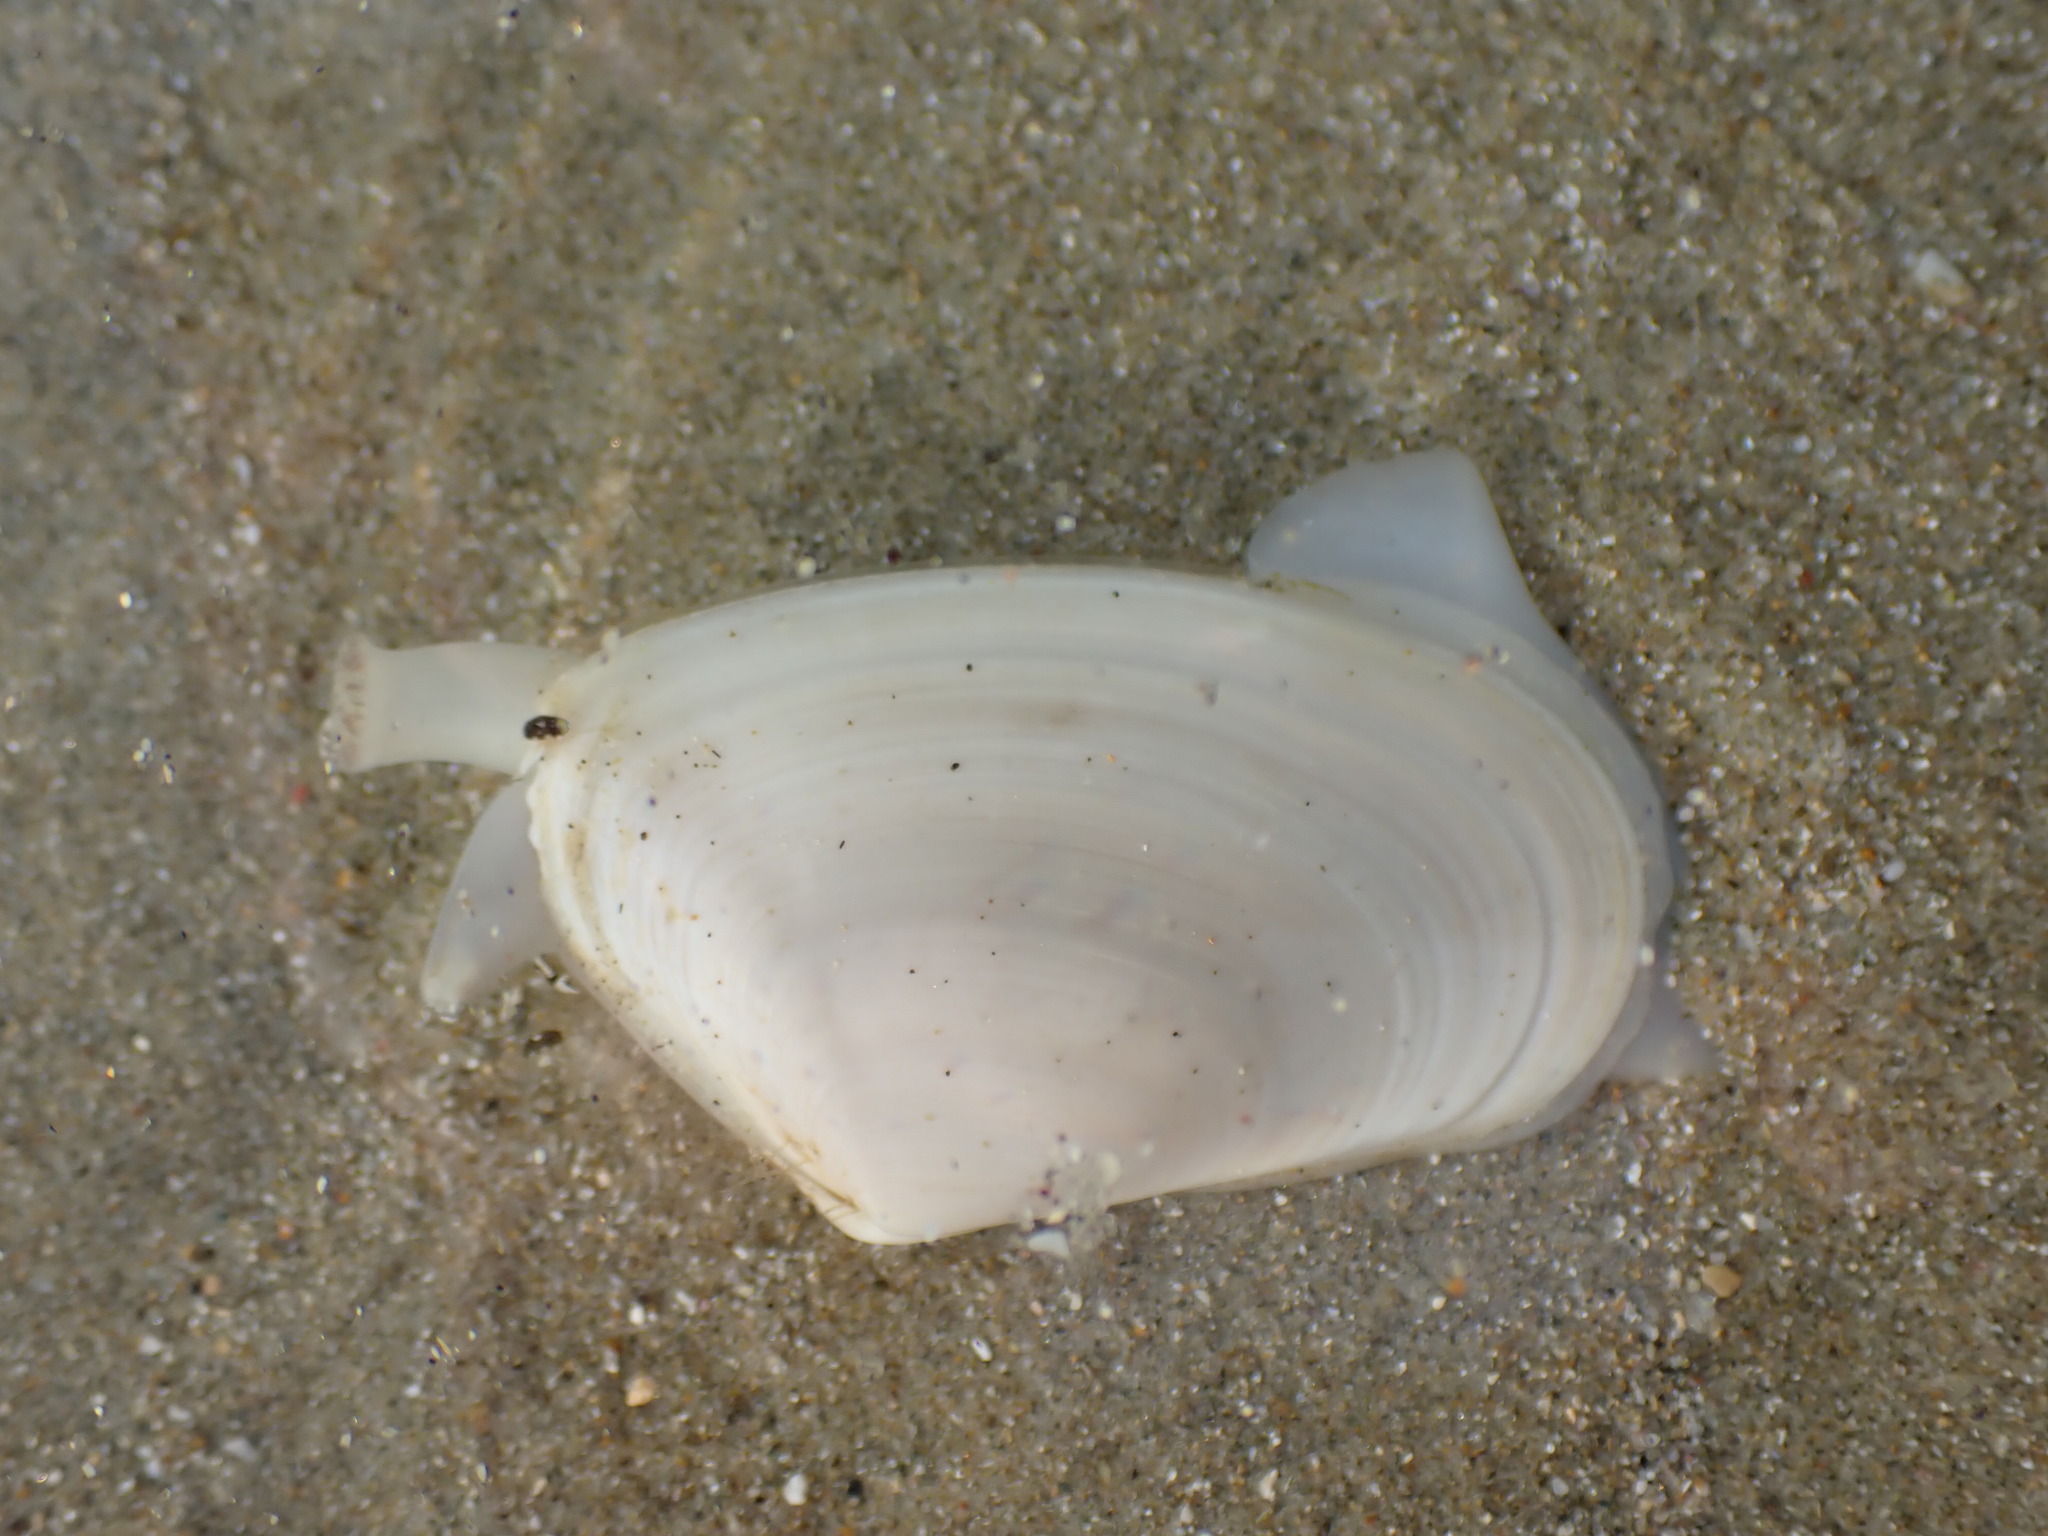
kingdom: Animalia
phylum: Mollusca
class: Bivalvia
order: Venerida
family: Mesodesmatidae
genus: Paphies
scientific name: Paphies subtriangulata
